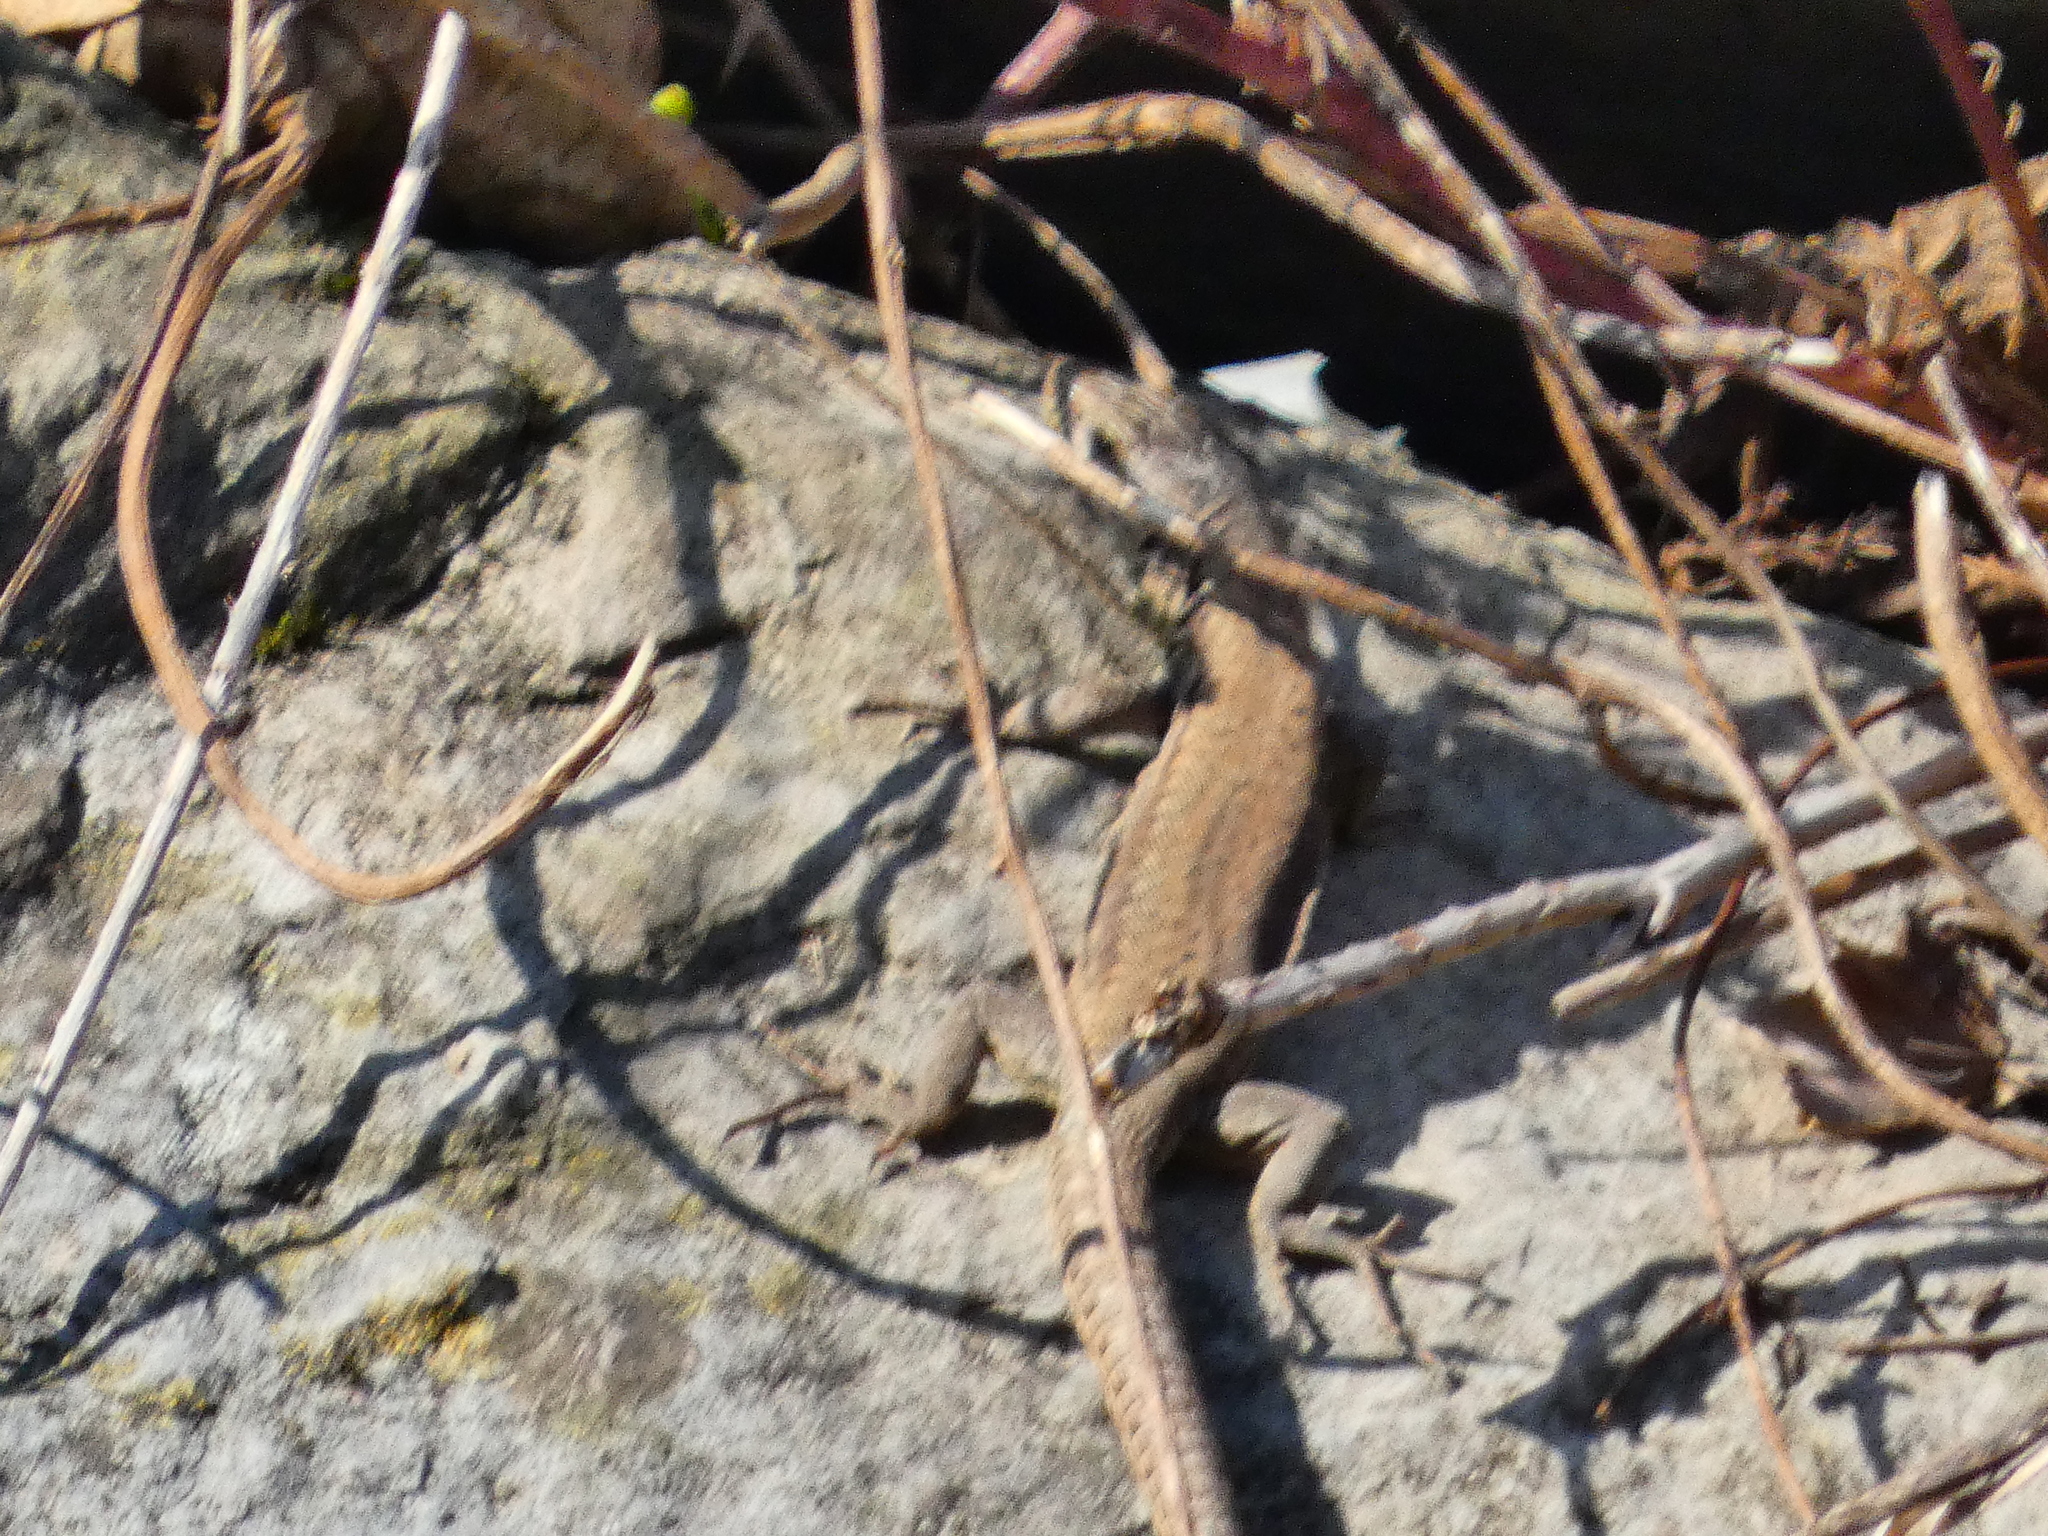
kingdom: Animalia
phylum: Chordata
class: Squamata
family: Lacertidae
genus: Podarcis
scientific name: Podarcis muralis
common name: Common wall lizard
